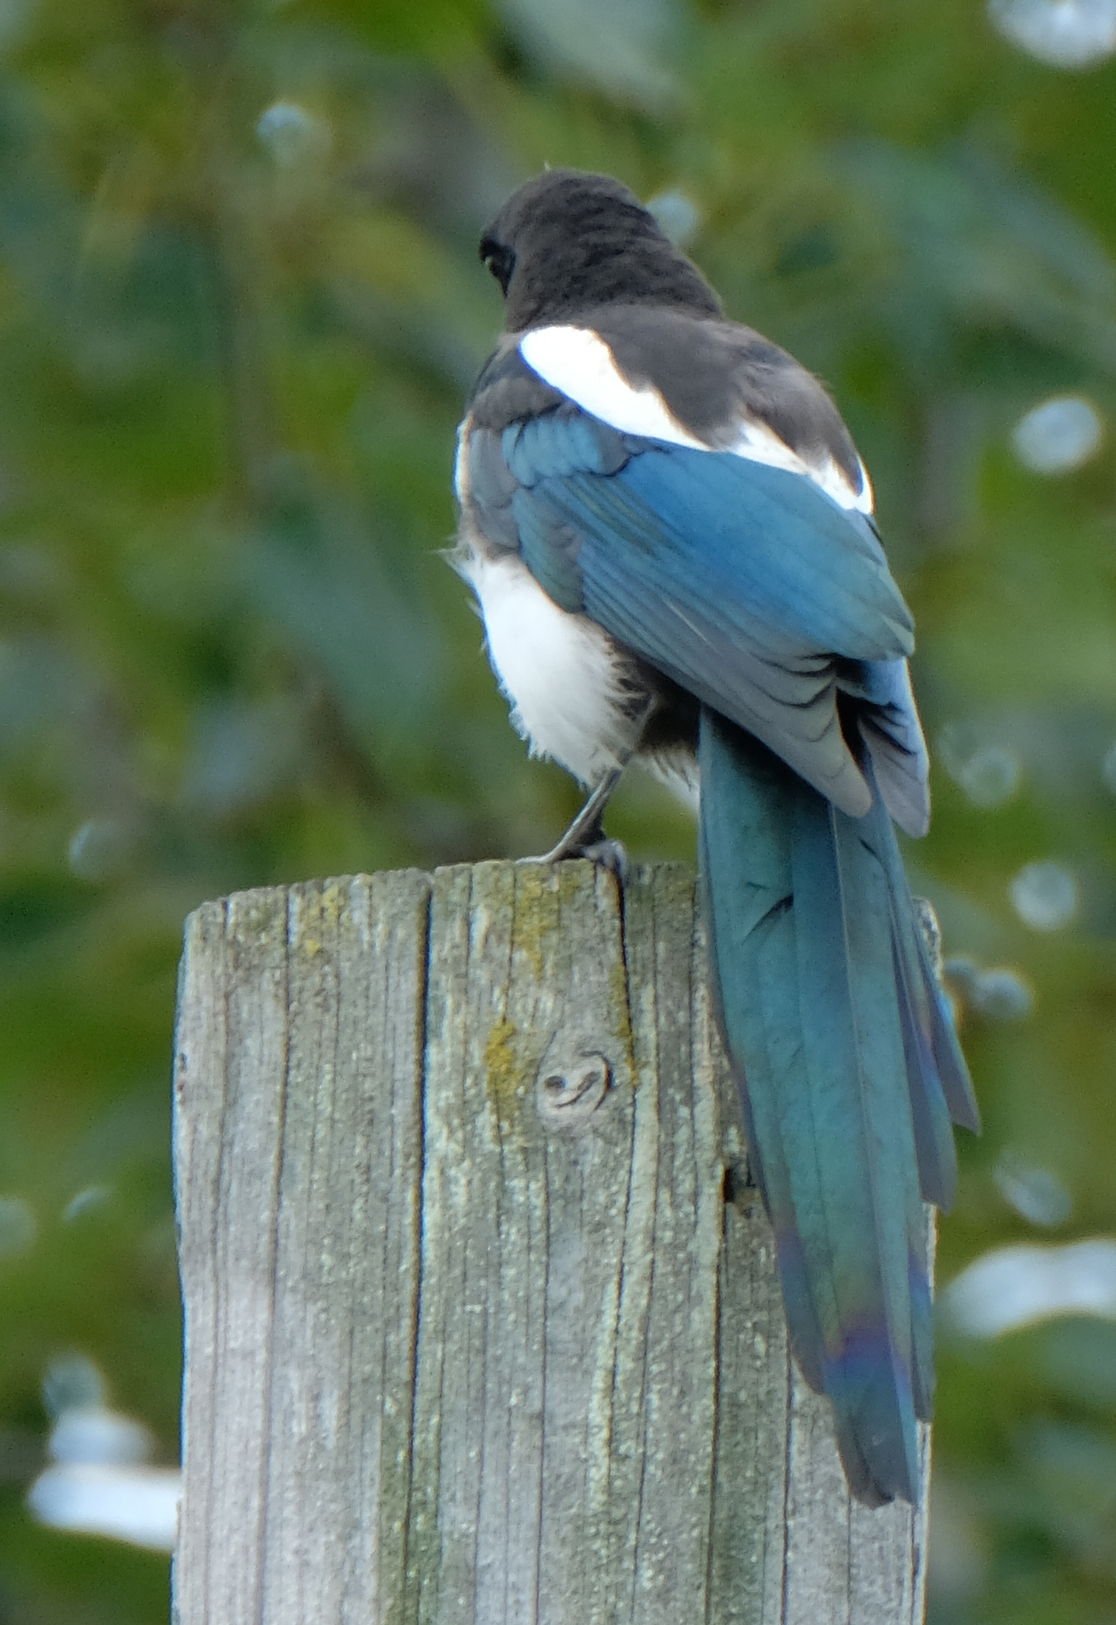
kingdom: Animalia
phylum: Chordata
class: Aves
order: Passeriformes
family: Corvidae
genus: Pica
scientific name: Pica hudsonia
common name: Black-billed magpie
